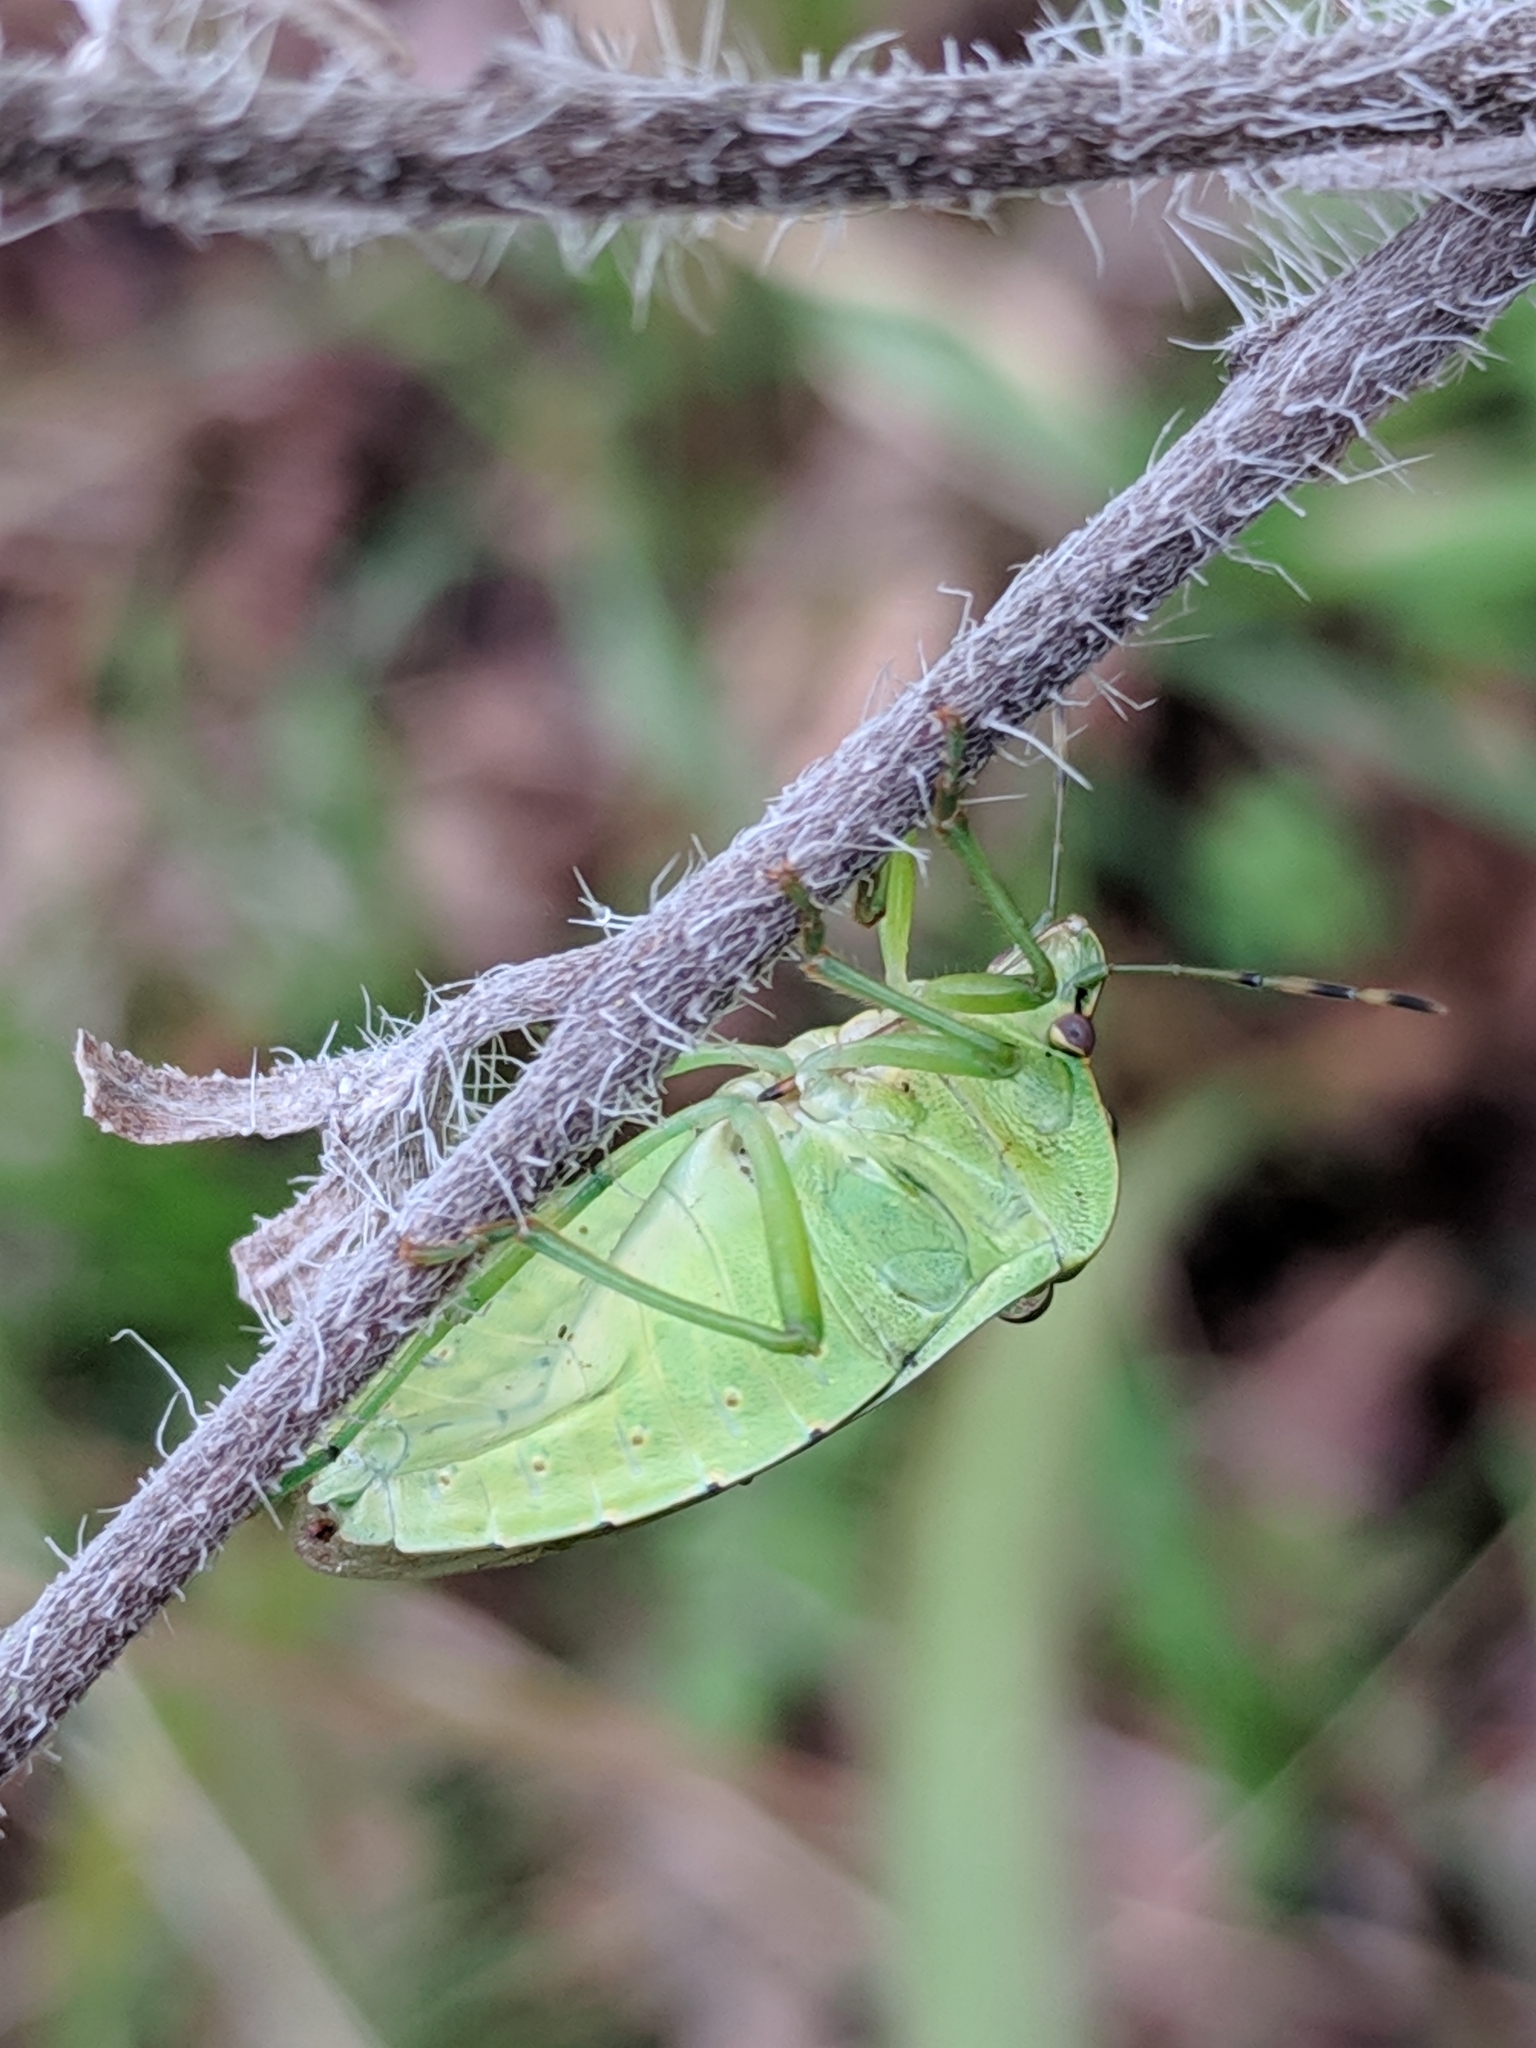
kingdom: Animalia
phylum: Arthropoda
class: Insecta
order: Hemiptera
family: Pentatomidae
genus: Chinavia
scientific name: Chinavia hilaris
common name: Green stink bug
